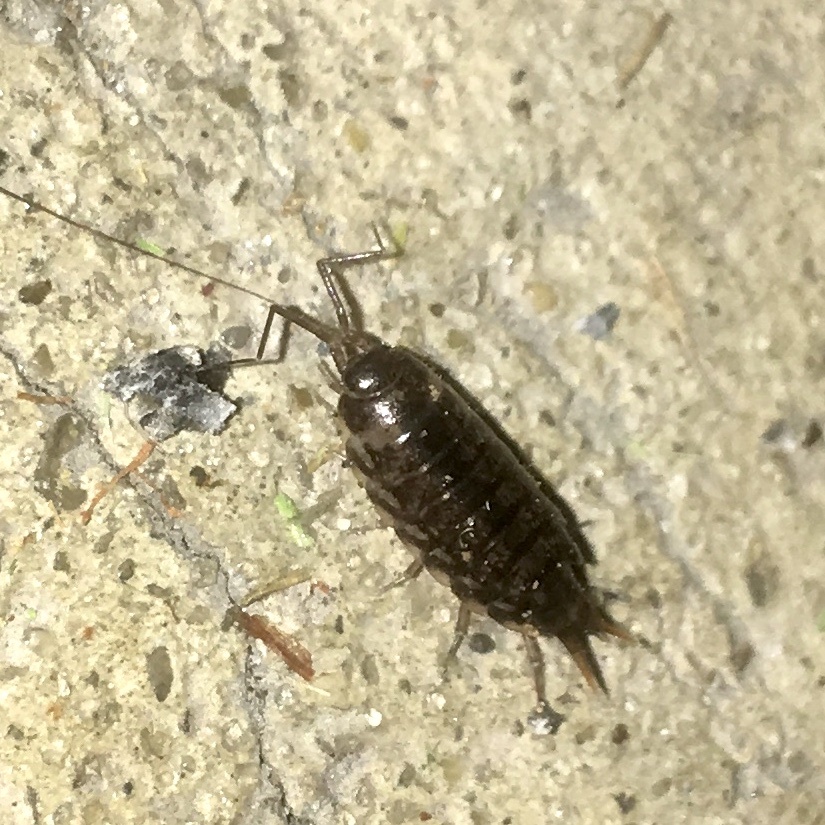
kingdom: Animalia
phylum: Arthropoda
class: Malacostraca
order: Isopoda
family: Philosciidae
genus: Atlantoscia
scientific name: Atlantoscia floridana
